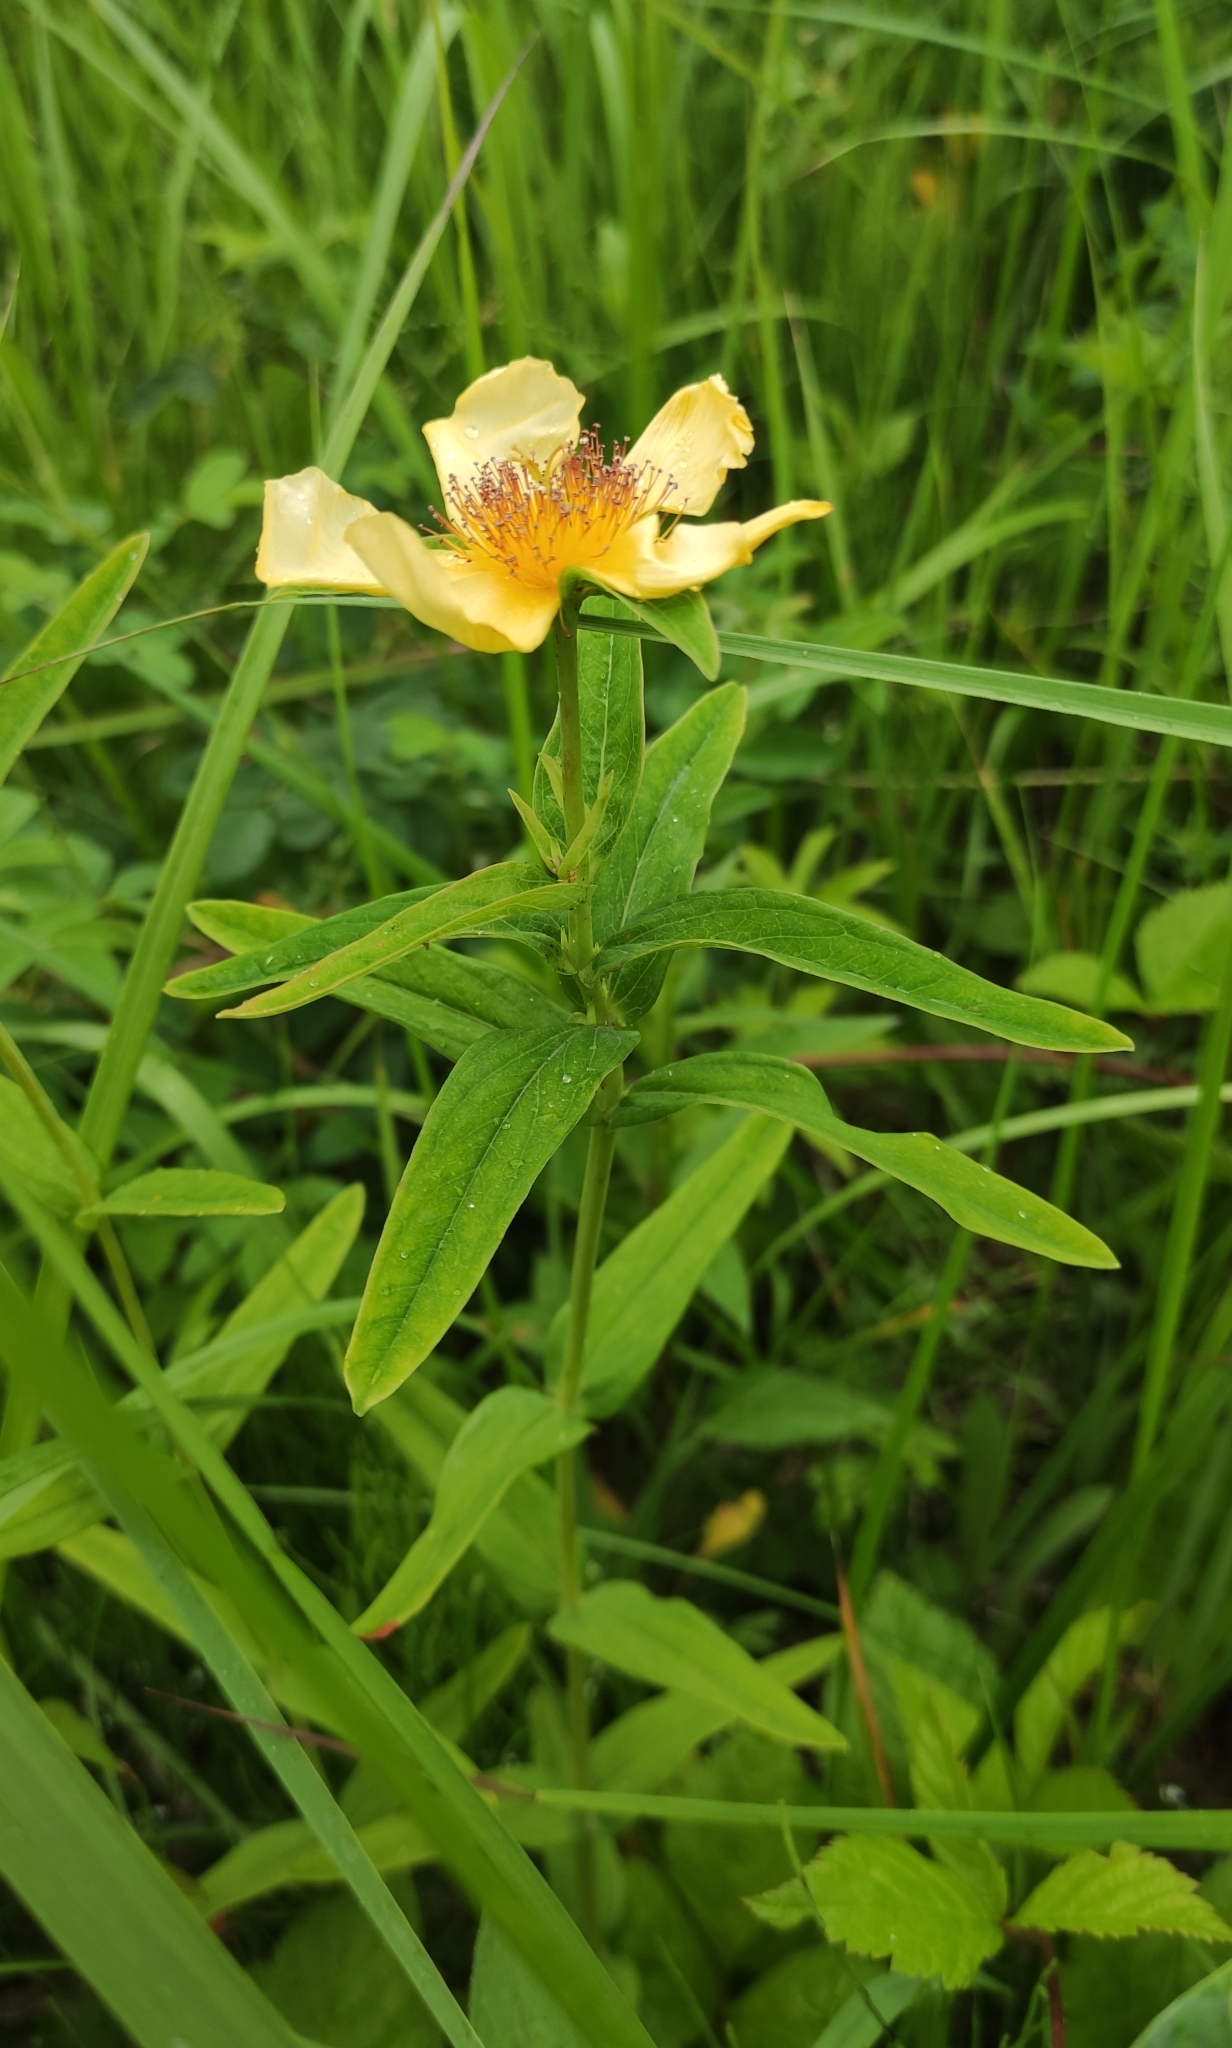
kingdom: Plantae
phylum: Tracheophyta
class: Magnoliopsida
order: Malpighiales
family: Hypericaceae
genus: Hypericum
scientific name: Hypericum ascyron
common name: Giant st. john's-wort
